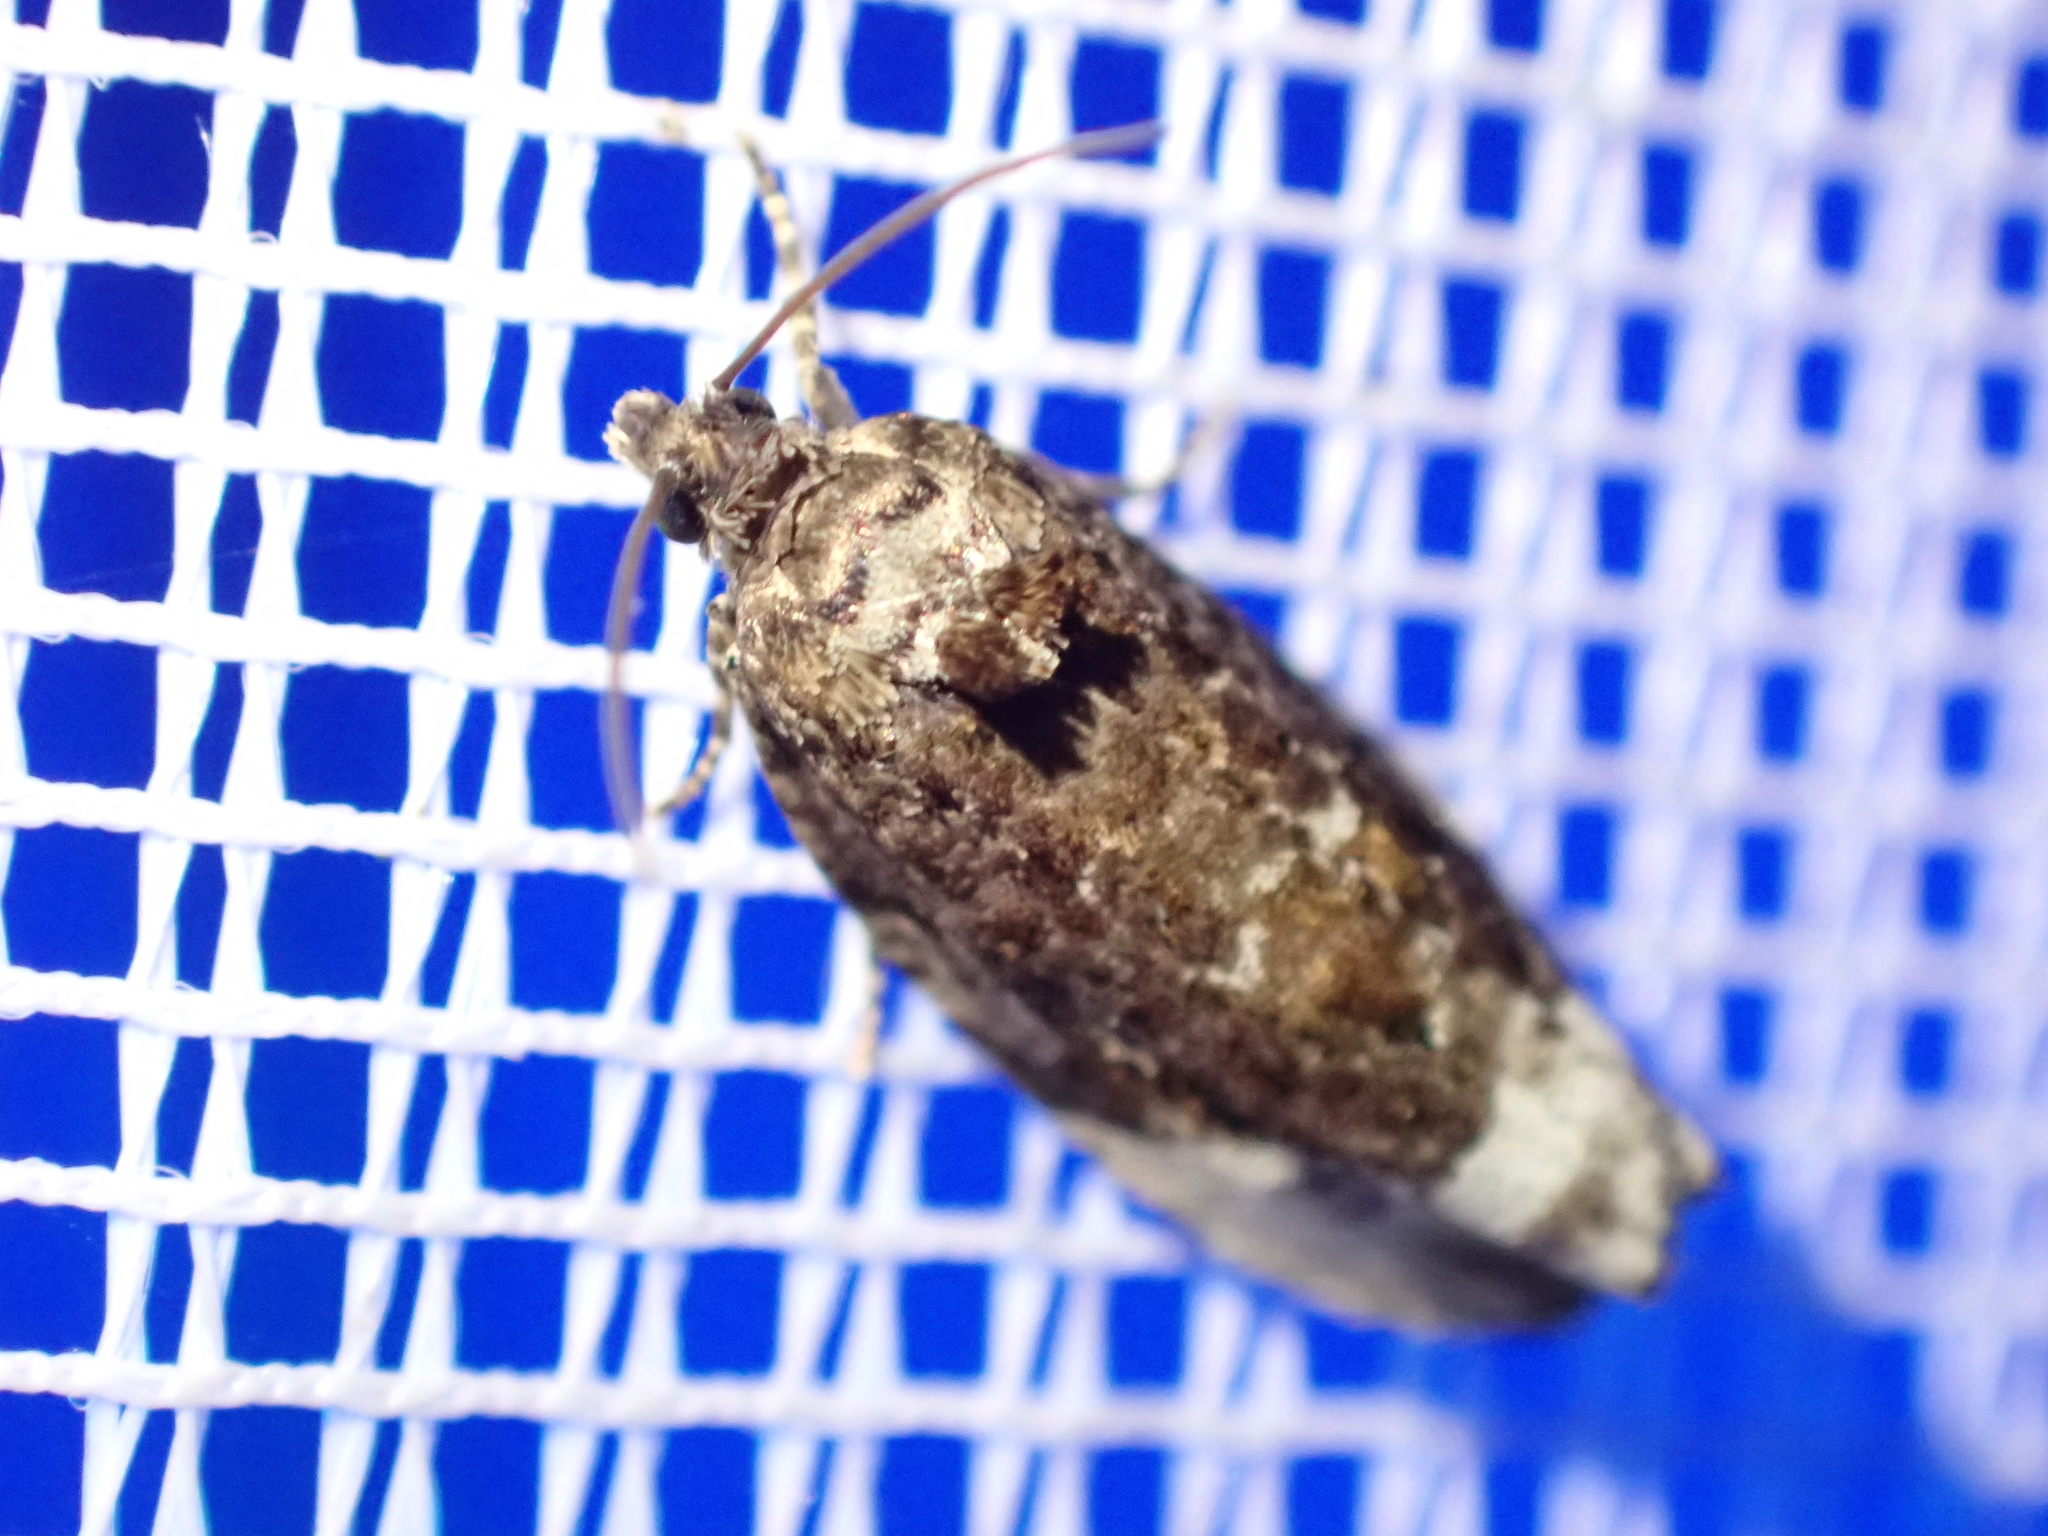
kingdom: Animalia
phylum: Arthropoda
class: Insecta
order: Lepidoptera
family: Tortricidae
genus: Hedya
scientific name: Hedya nubiferana
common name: Marbled orchard tortrix
